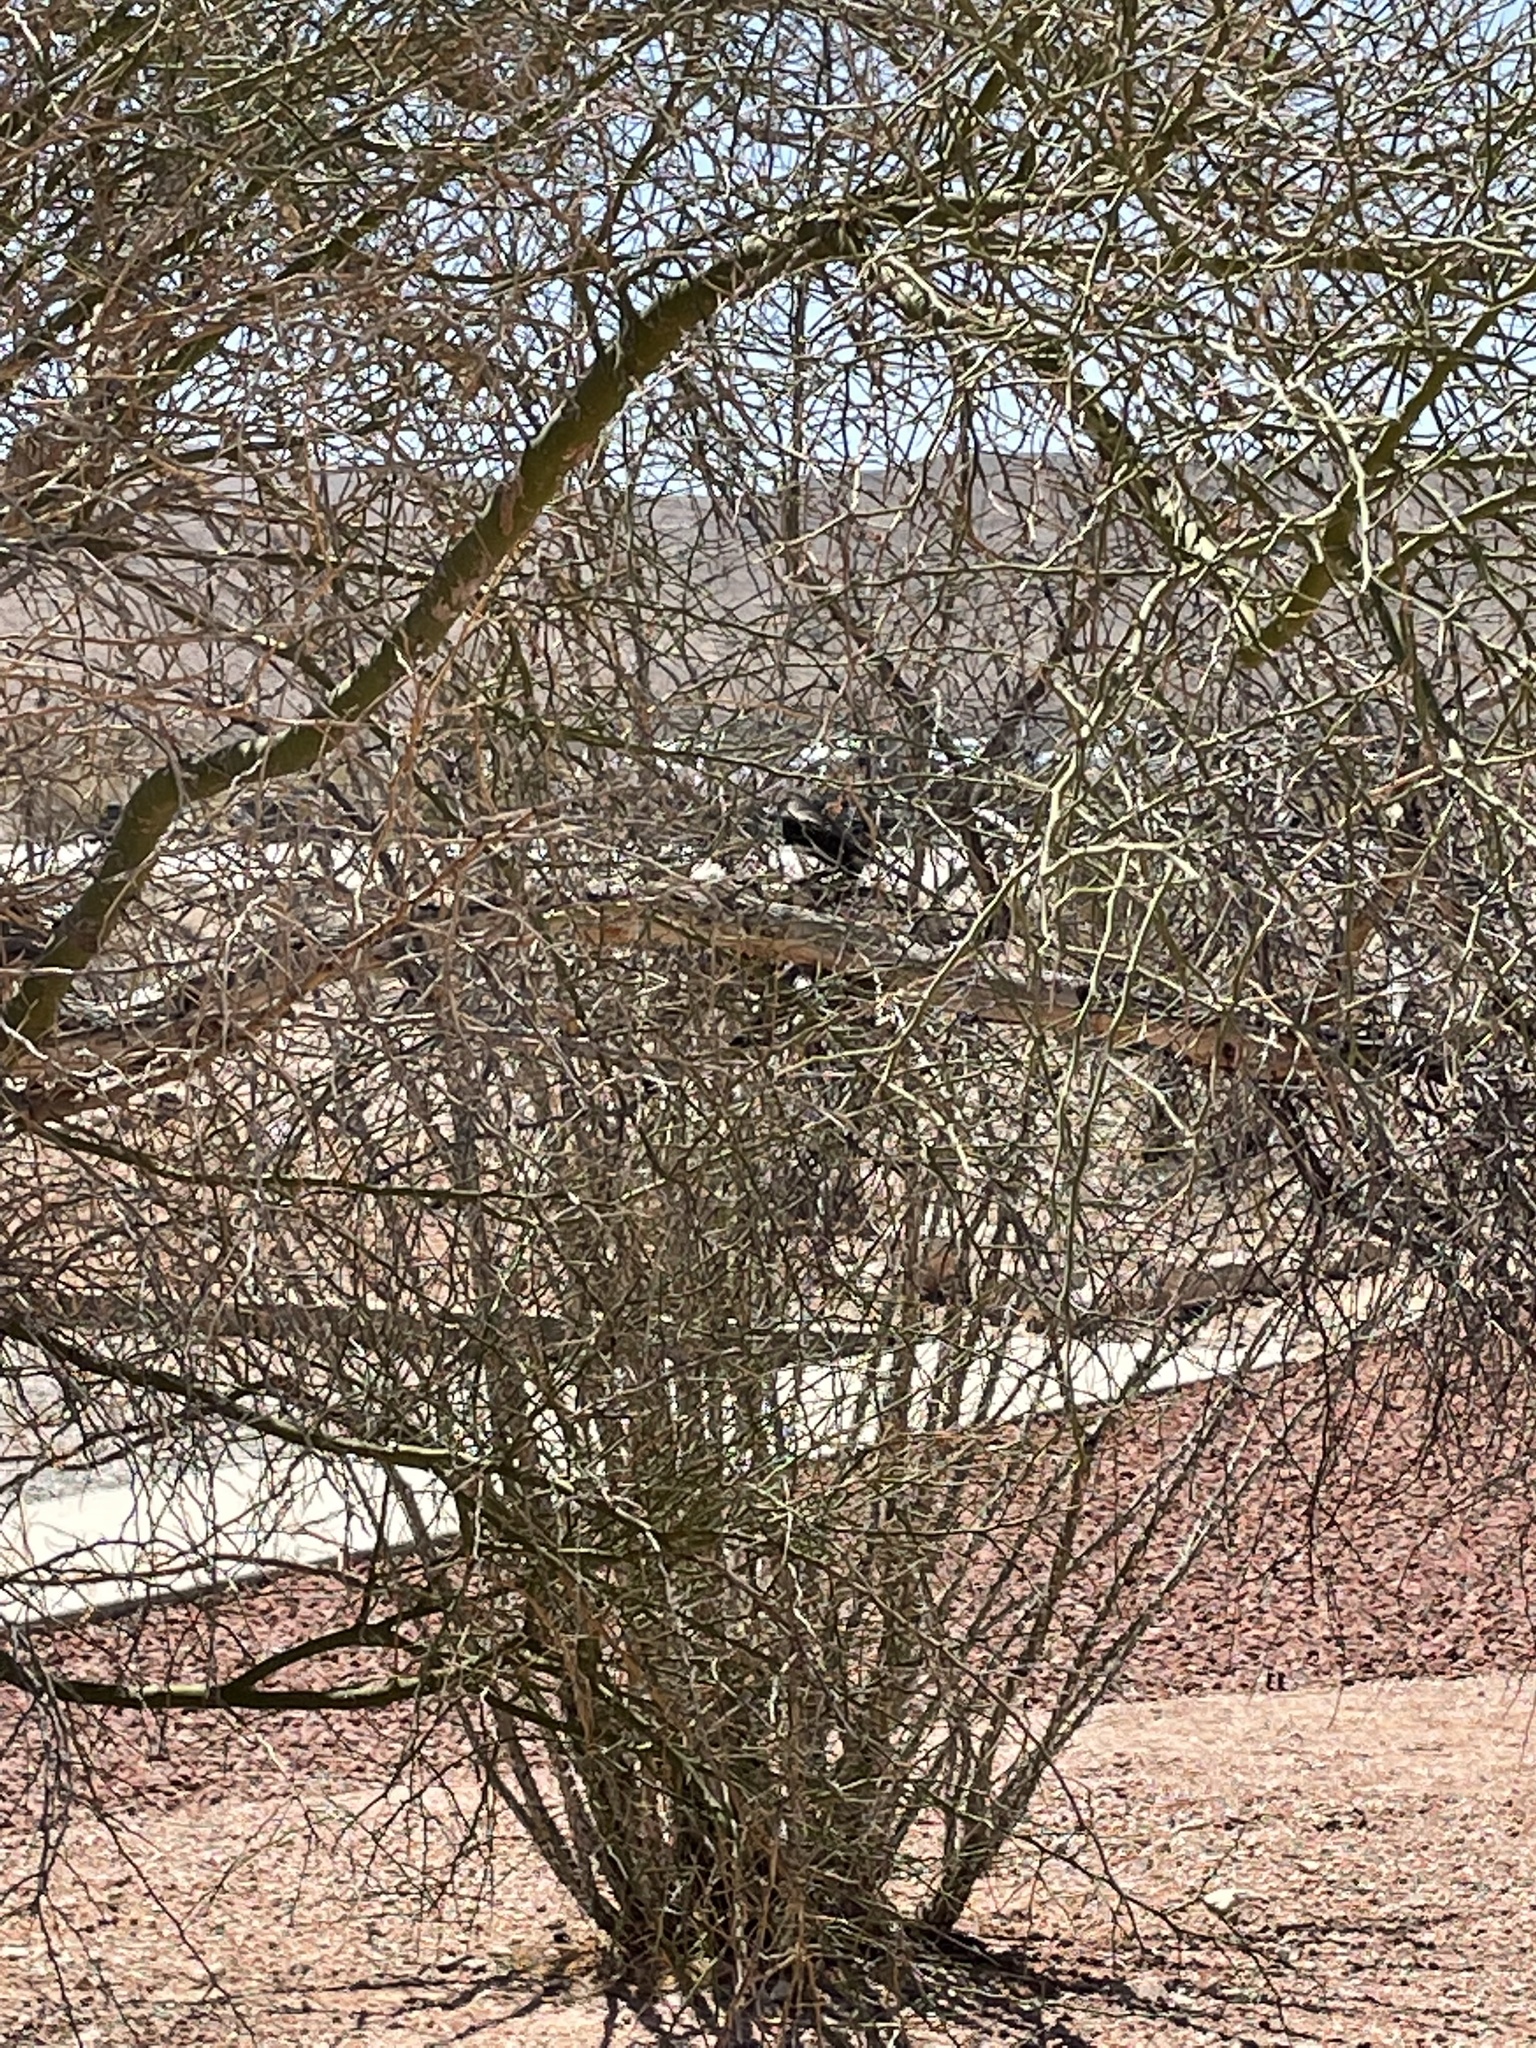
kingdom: Animalia
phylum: Chordata
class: Aves
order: Passeriformes
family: Mimidae
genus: Mimus
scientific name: Mimus polyglottos
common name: Northern mockingbird
